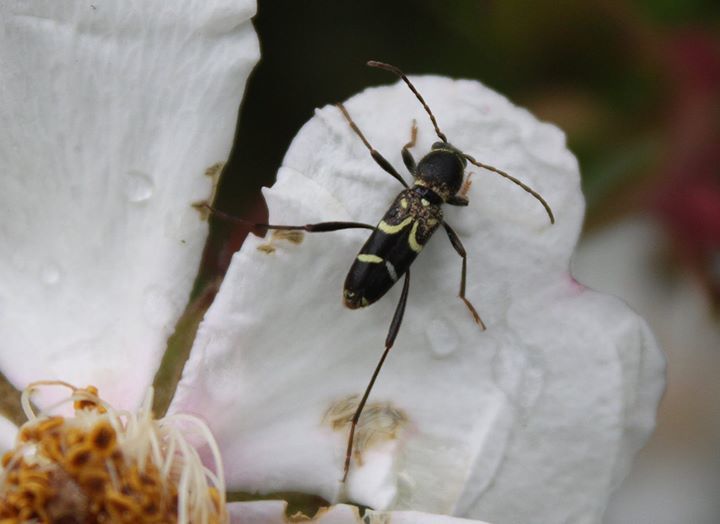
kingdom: Animalia
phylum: Arthropoda
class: Insecta
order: Coleoptera
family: Cerambycidae
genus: Clytus
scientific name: Clytus rhamni
